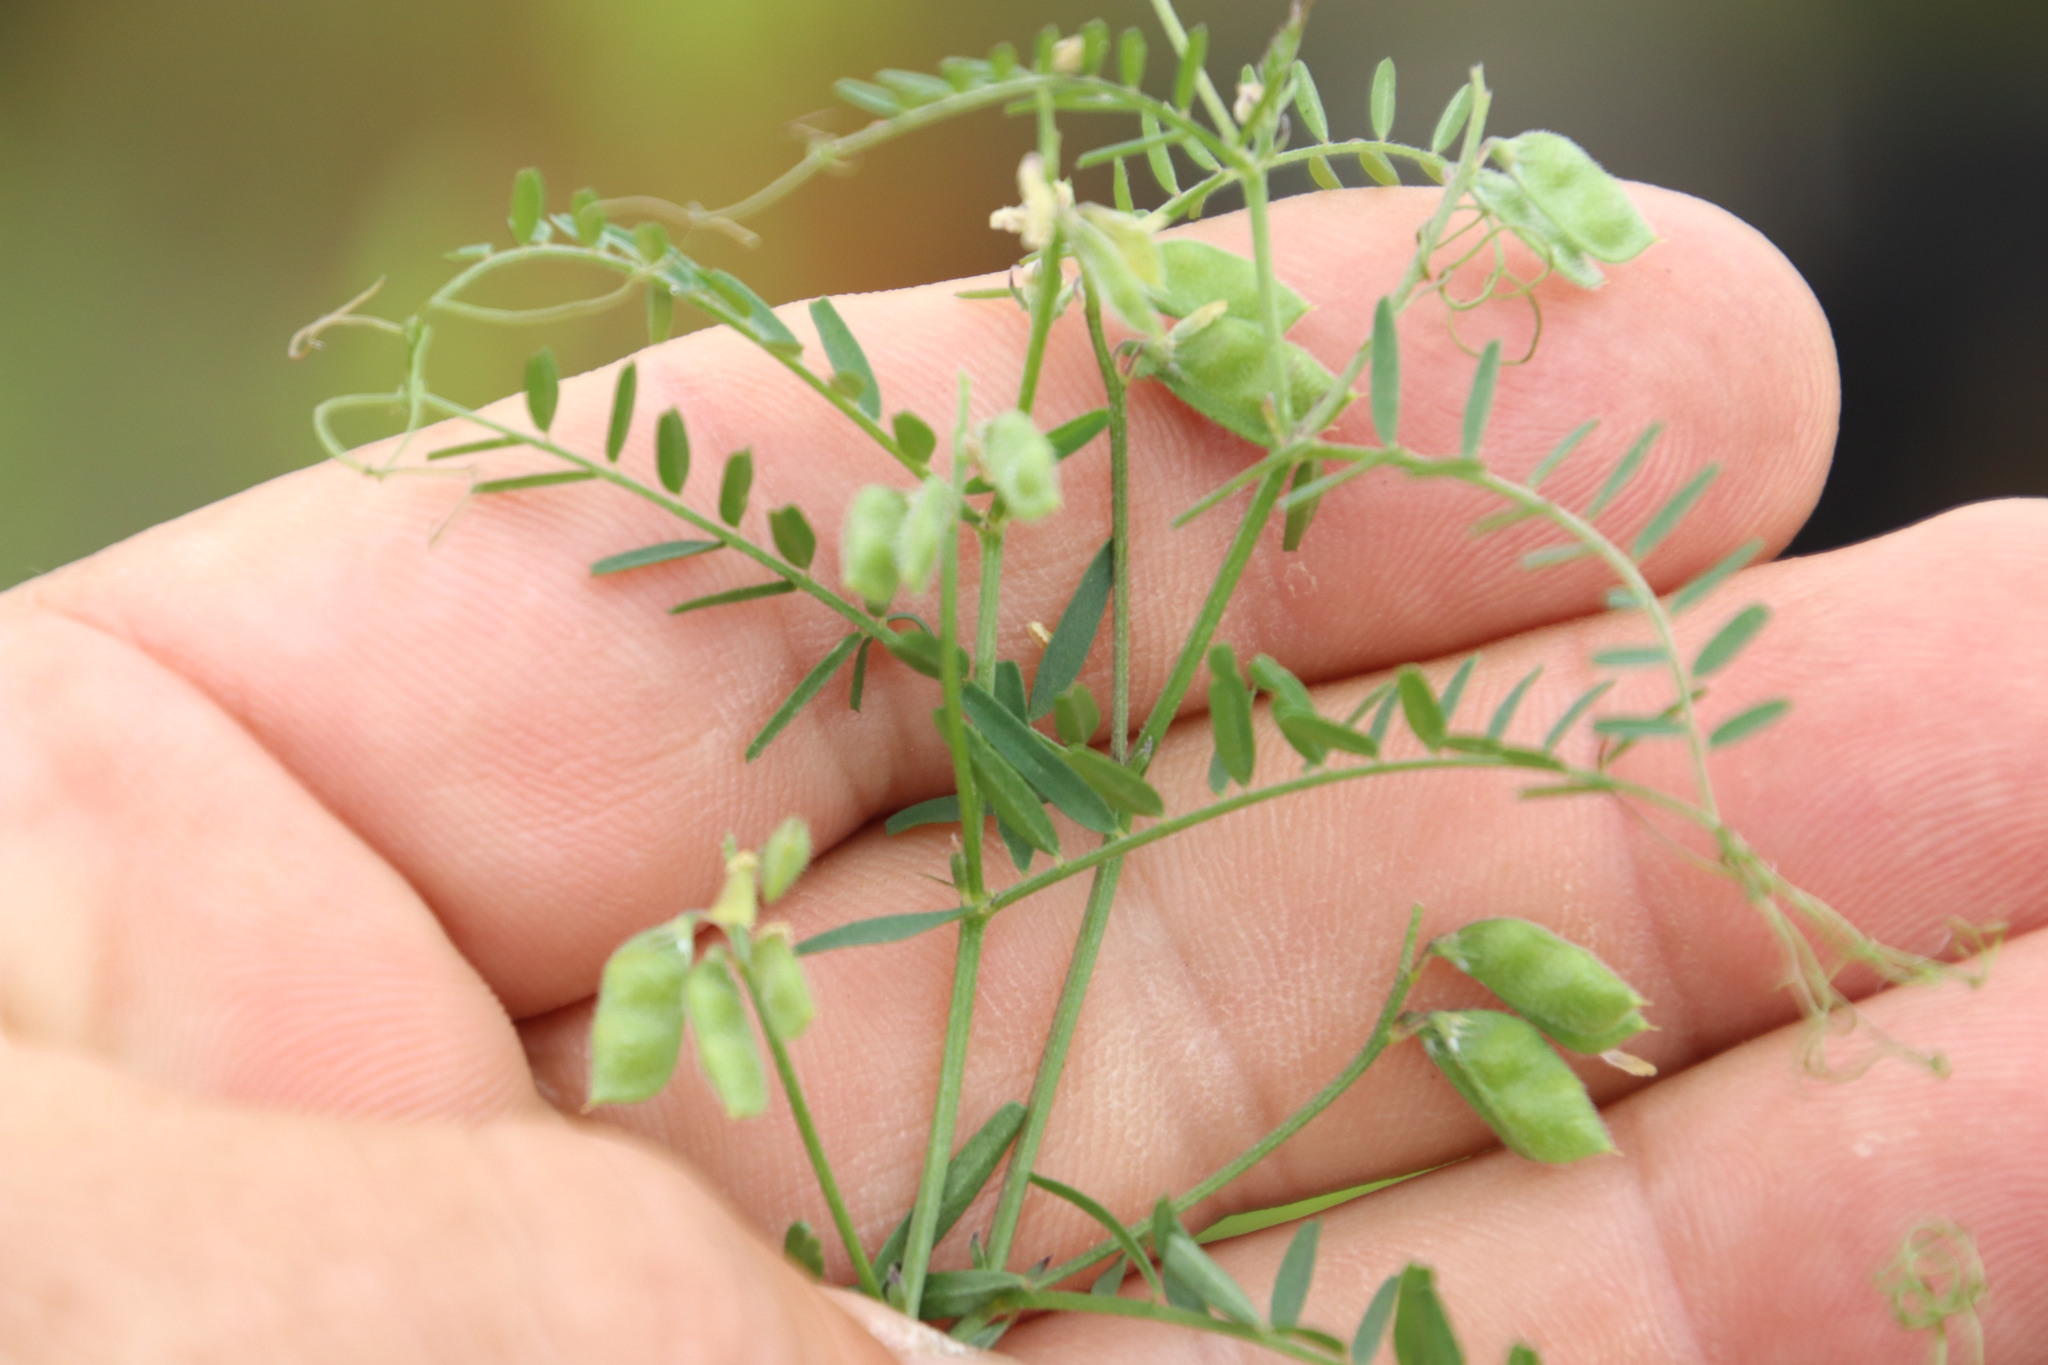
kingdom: Plantae
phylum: Tracheophyta
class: Magnoliopsida
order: Fabales
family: Fabaceae
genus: Vicia
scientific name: Vicia hirsuta
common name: Tiny vetch
